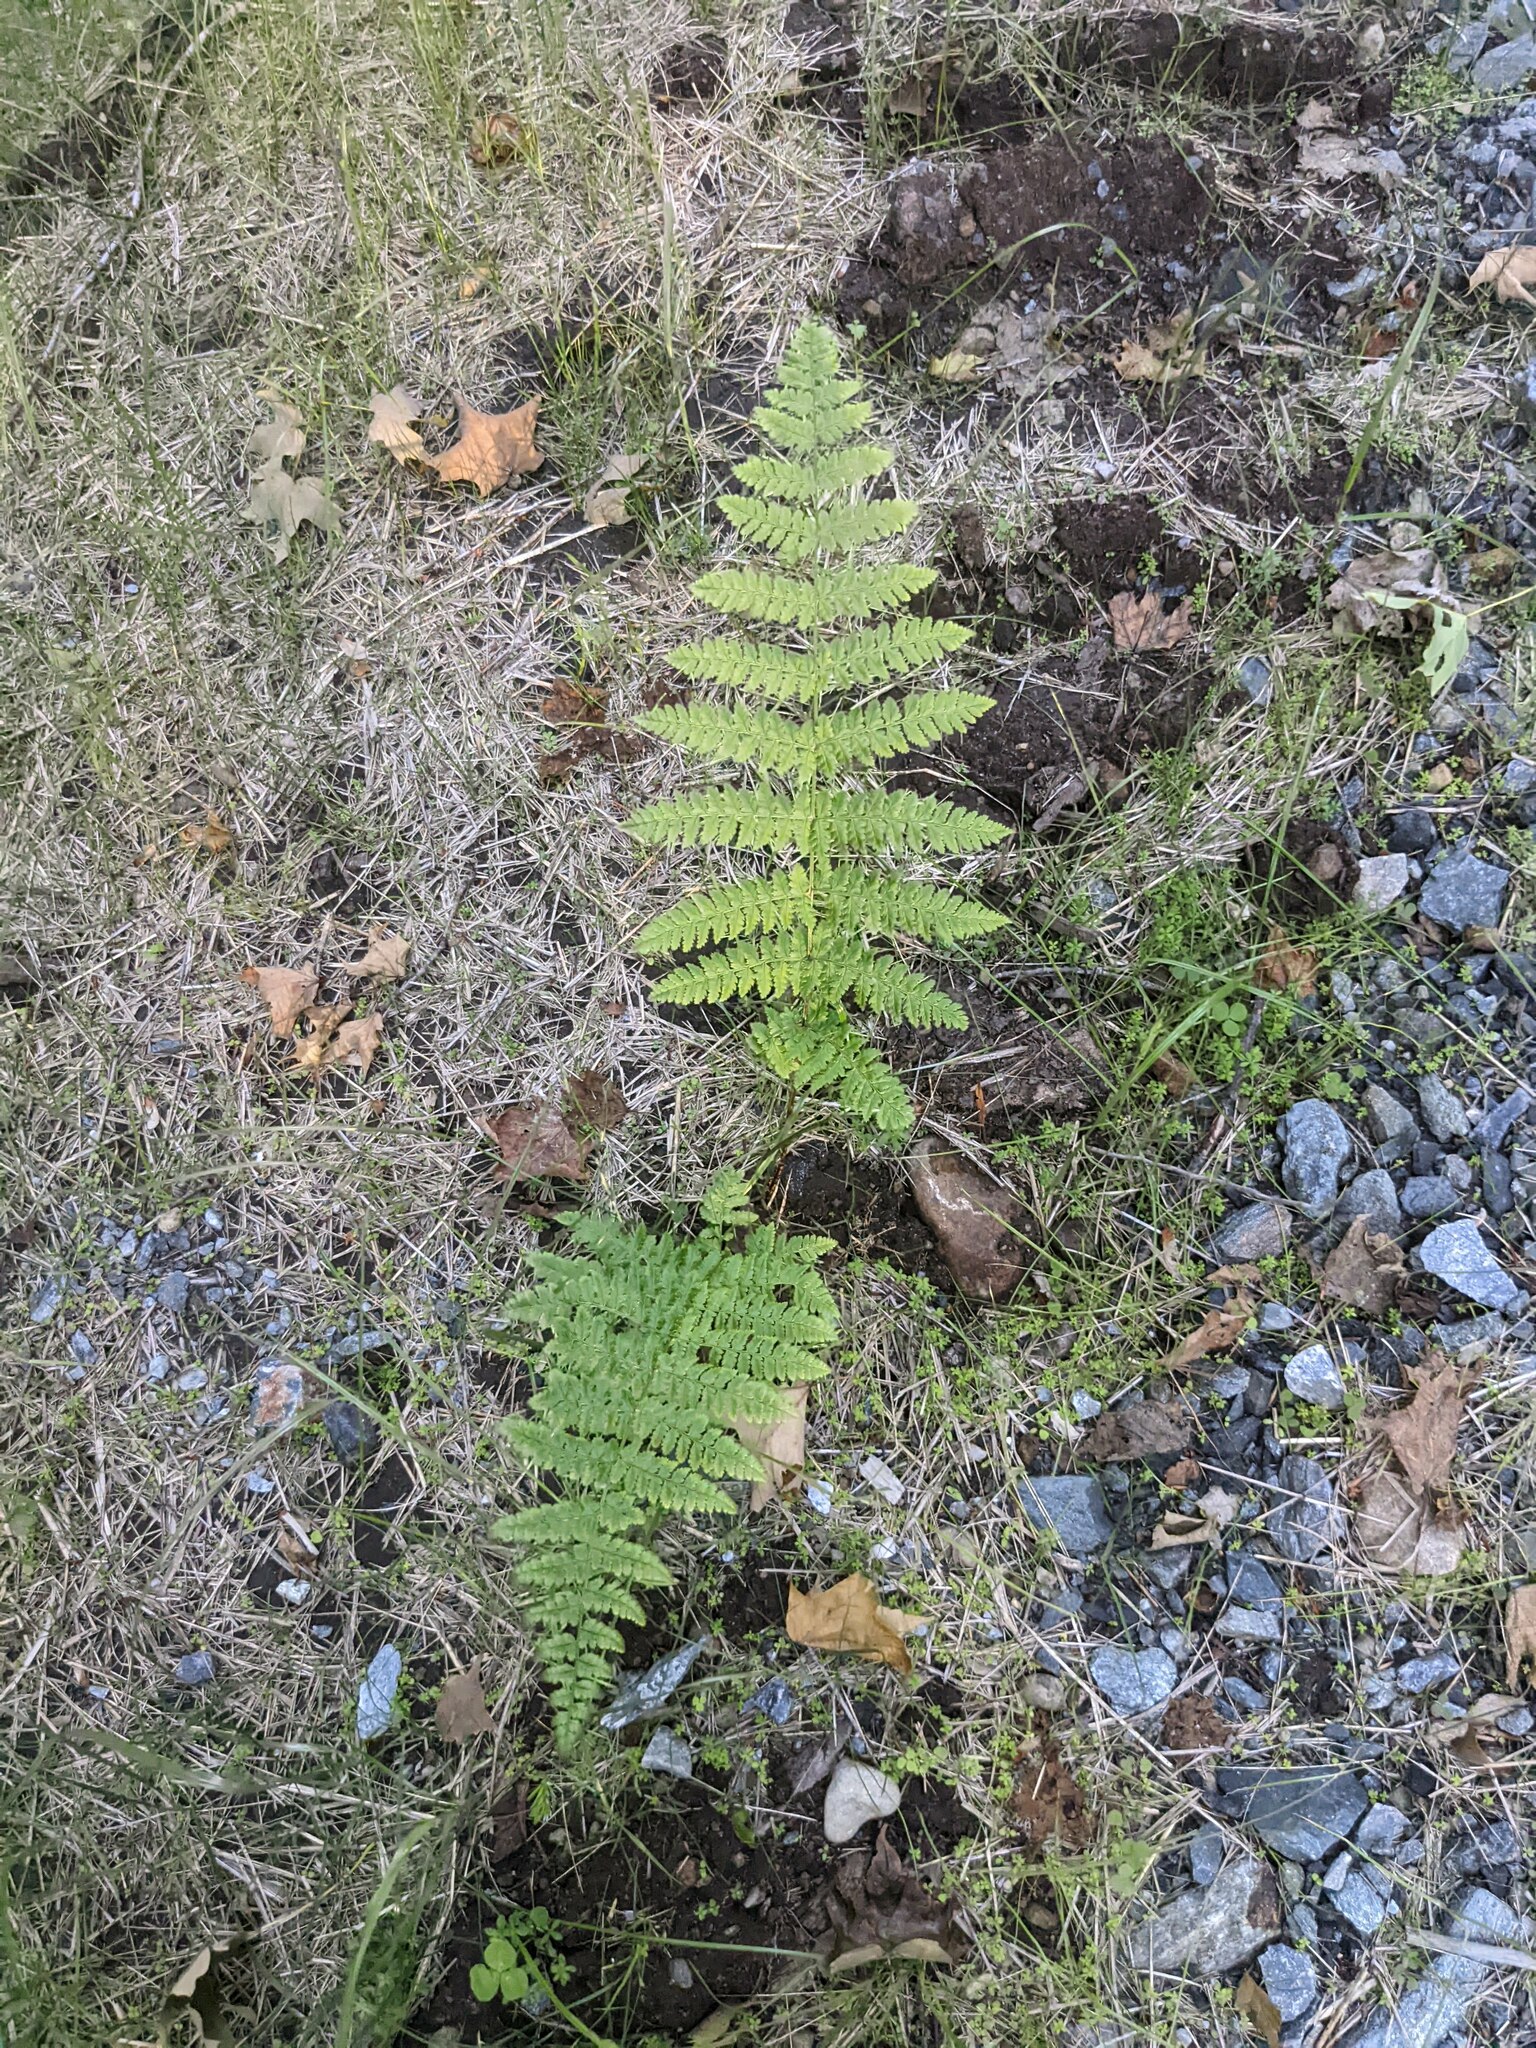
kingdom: Plantae
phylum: Tracheophyta
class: Polypodiopsida
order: Polypodiales
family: Athyriaceae
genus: Athyrium
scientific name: Athyrium angustum
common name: Northern lady fern
